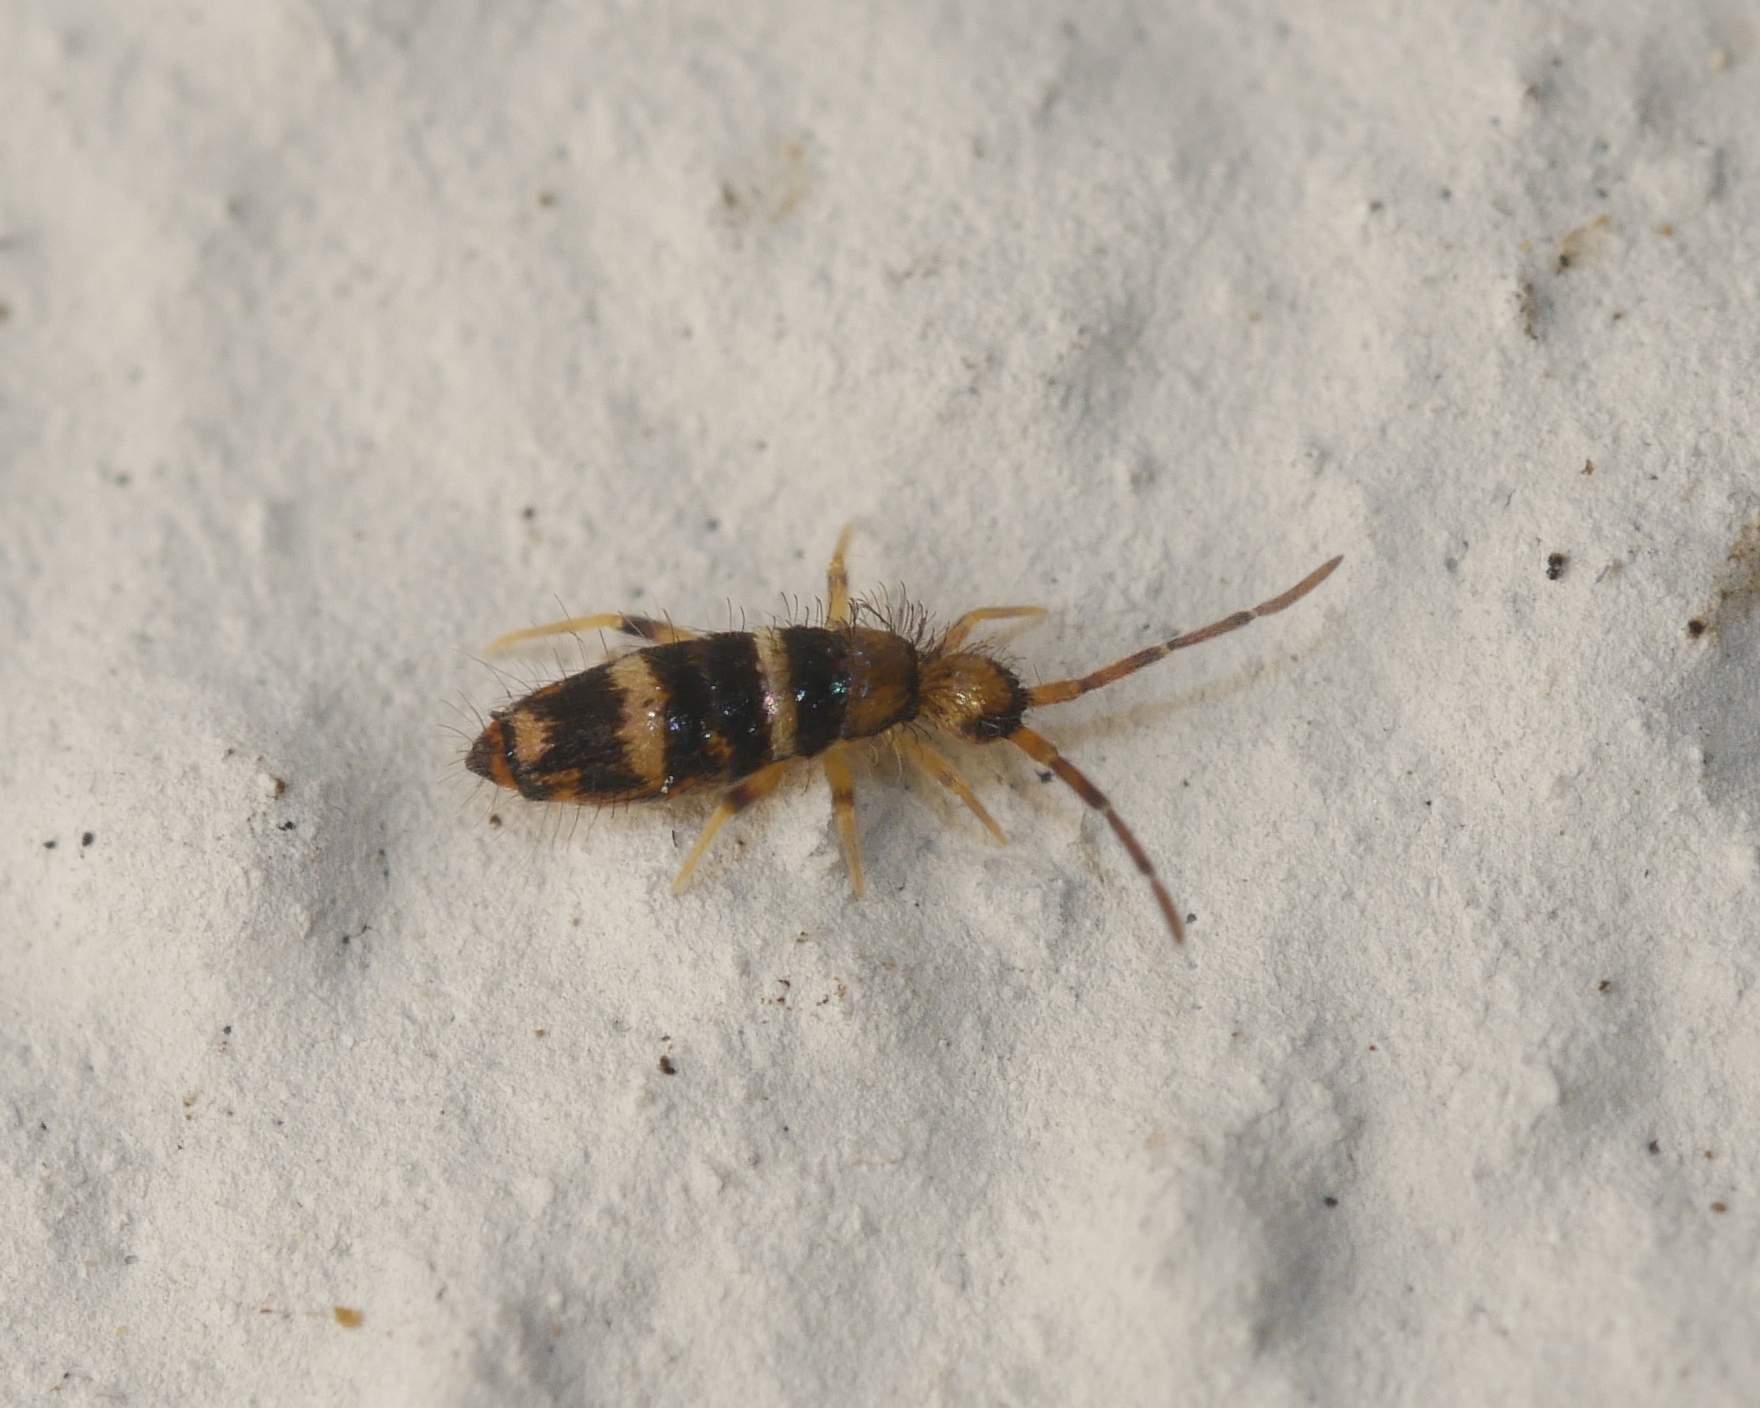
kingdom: Animalia
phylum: Arthropoda
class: Collembola
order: Entomobryomorpha
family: Entomobryidae
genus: Willowsia
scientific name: Willowsia platani
